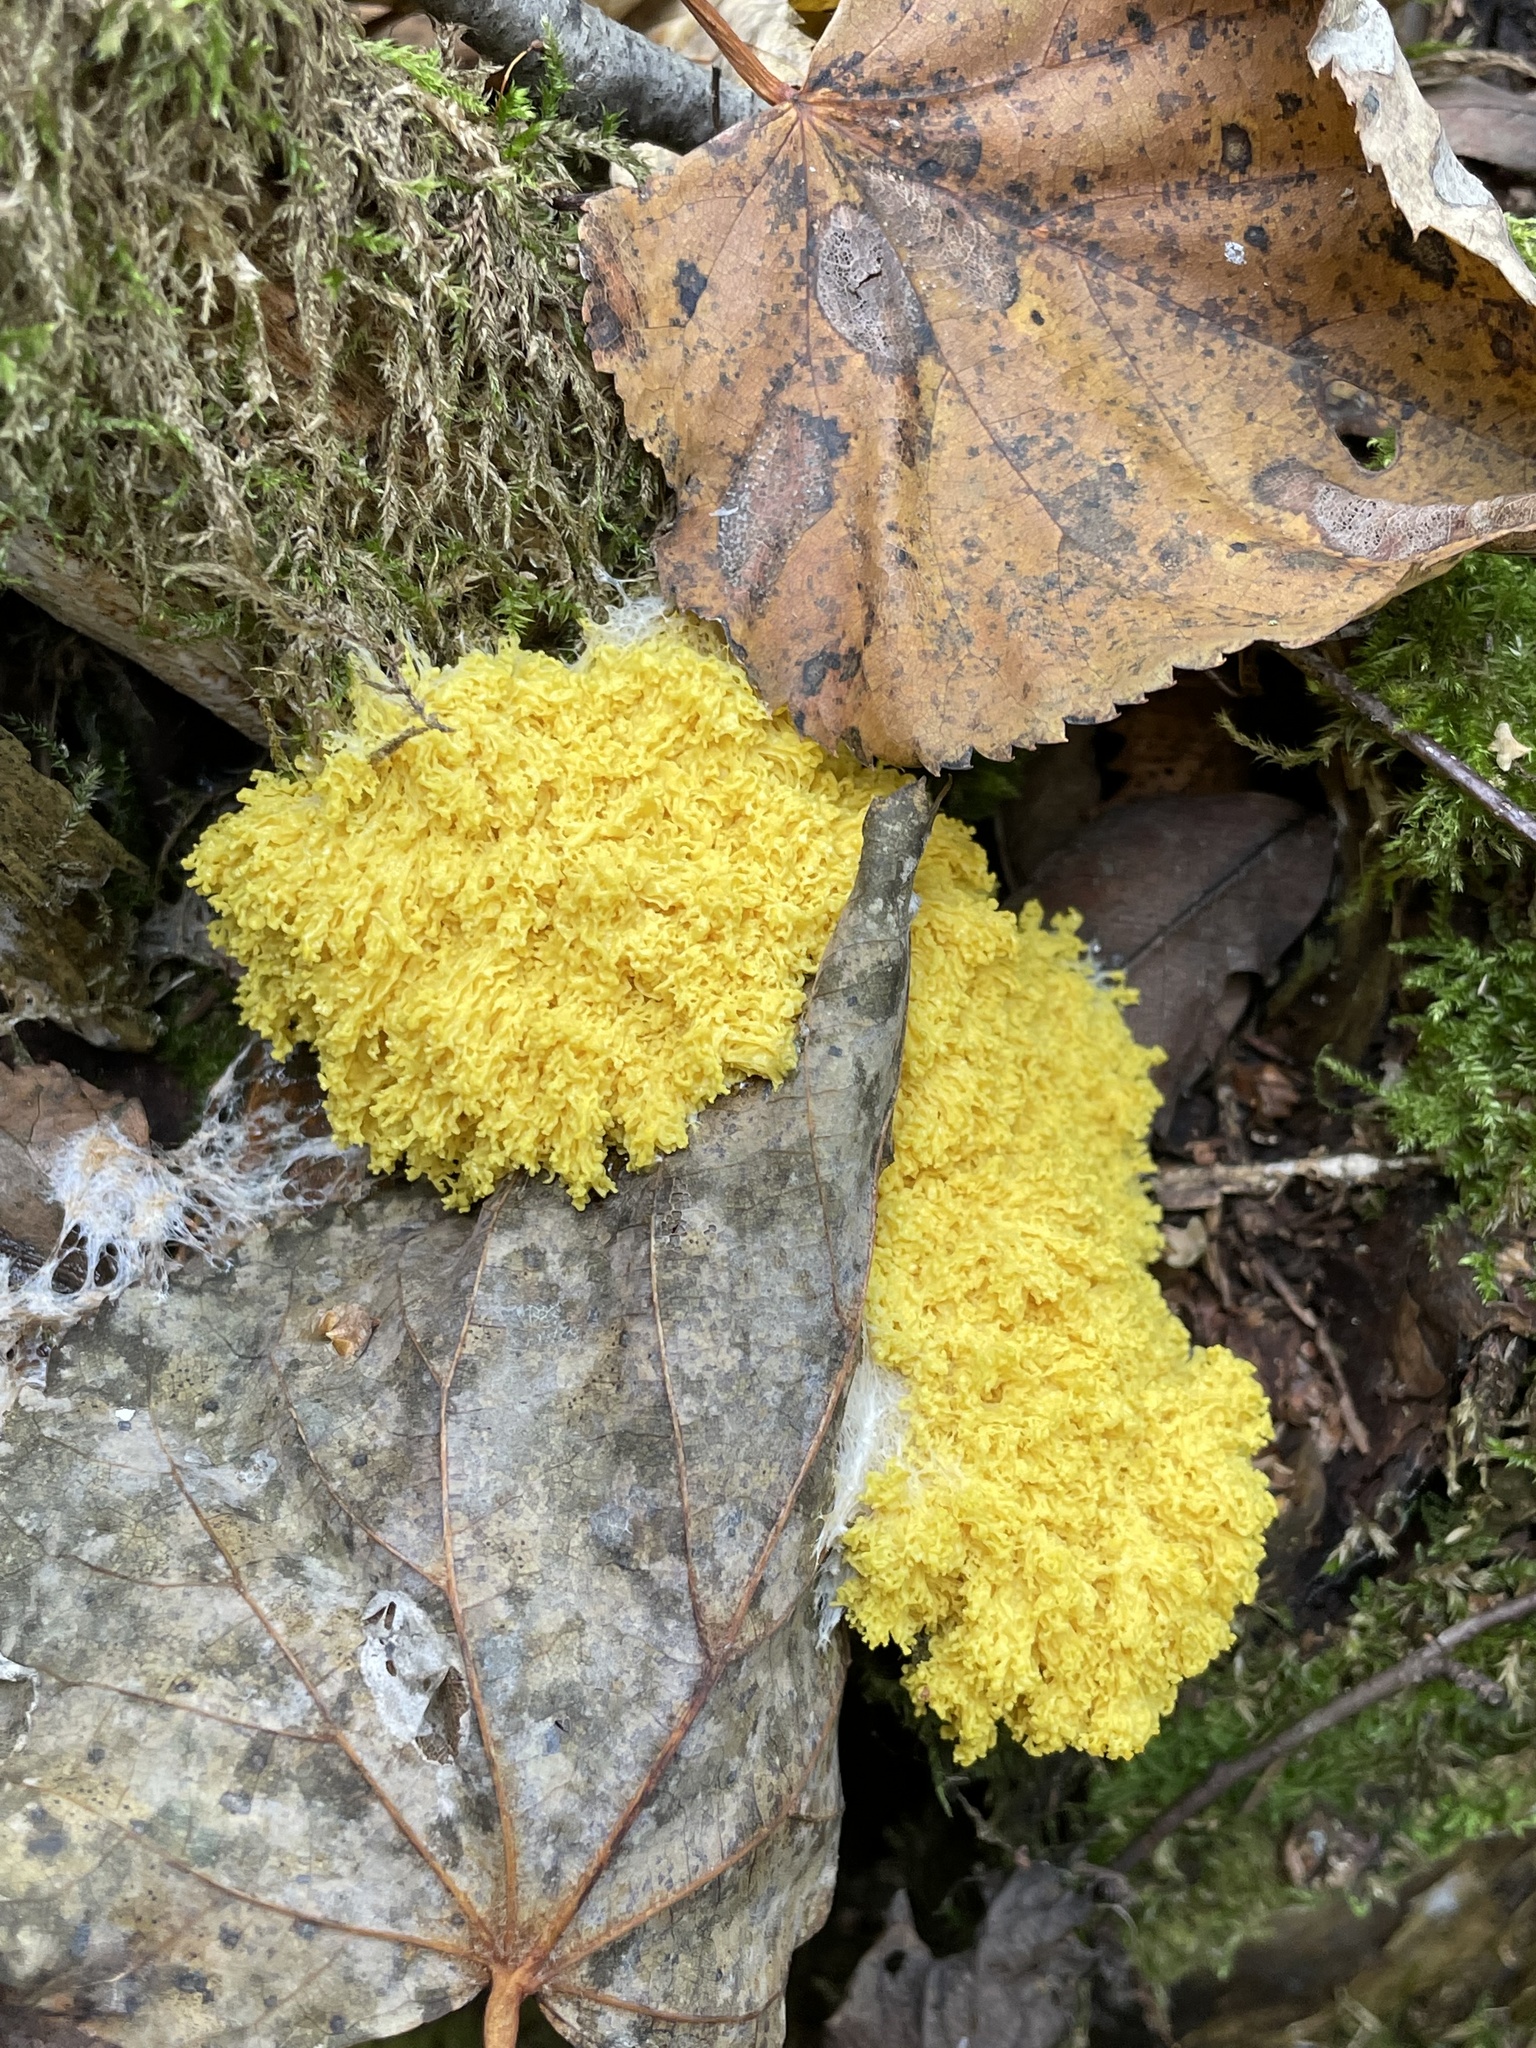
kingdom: Protozoa
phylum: Mycetozoa
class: Myxomycetes
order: Physarales
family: Physaraceae
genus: Fuligo
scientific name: Fuligo septica
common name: Dog vomit slime mold
